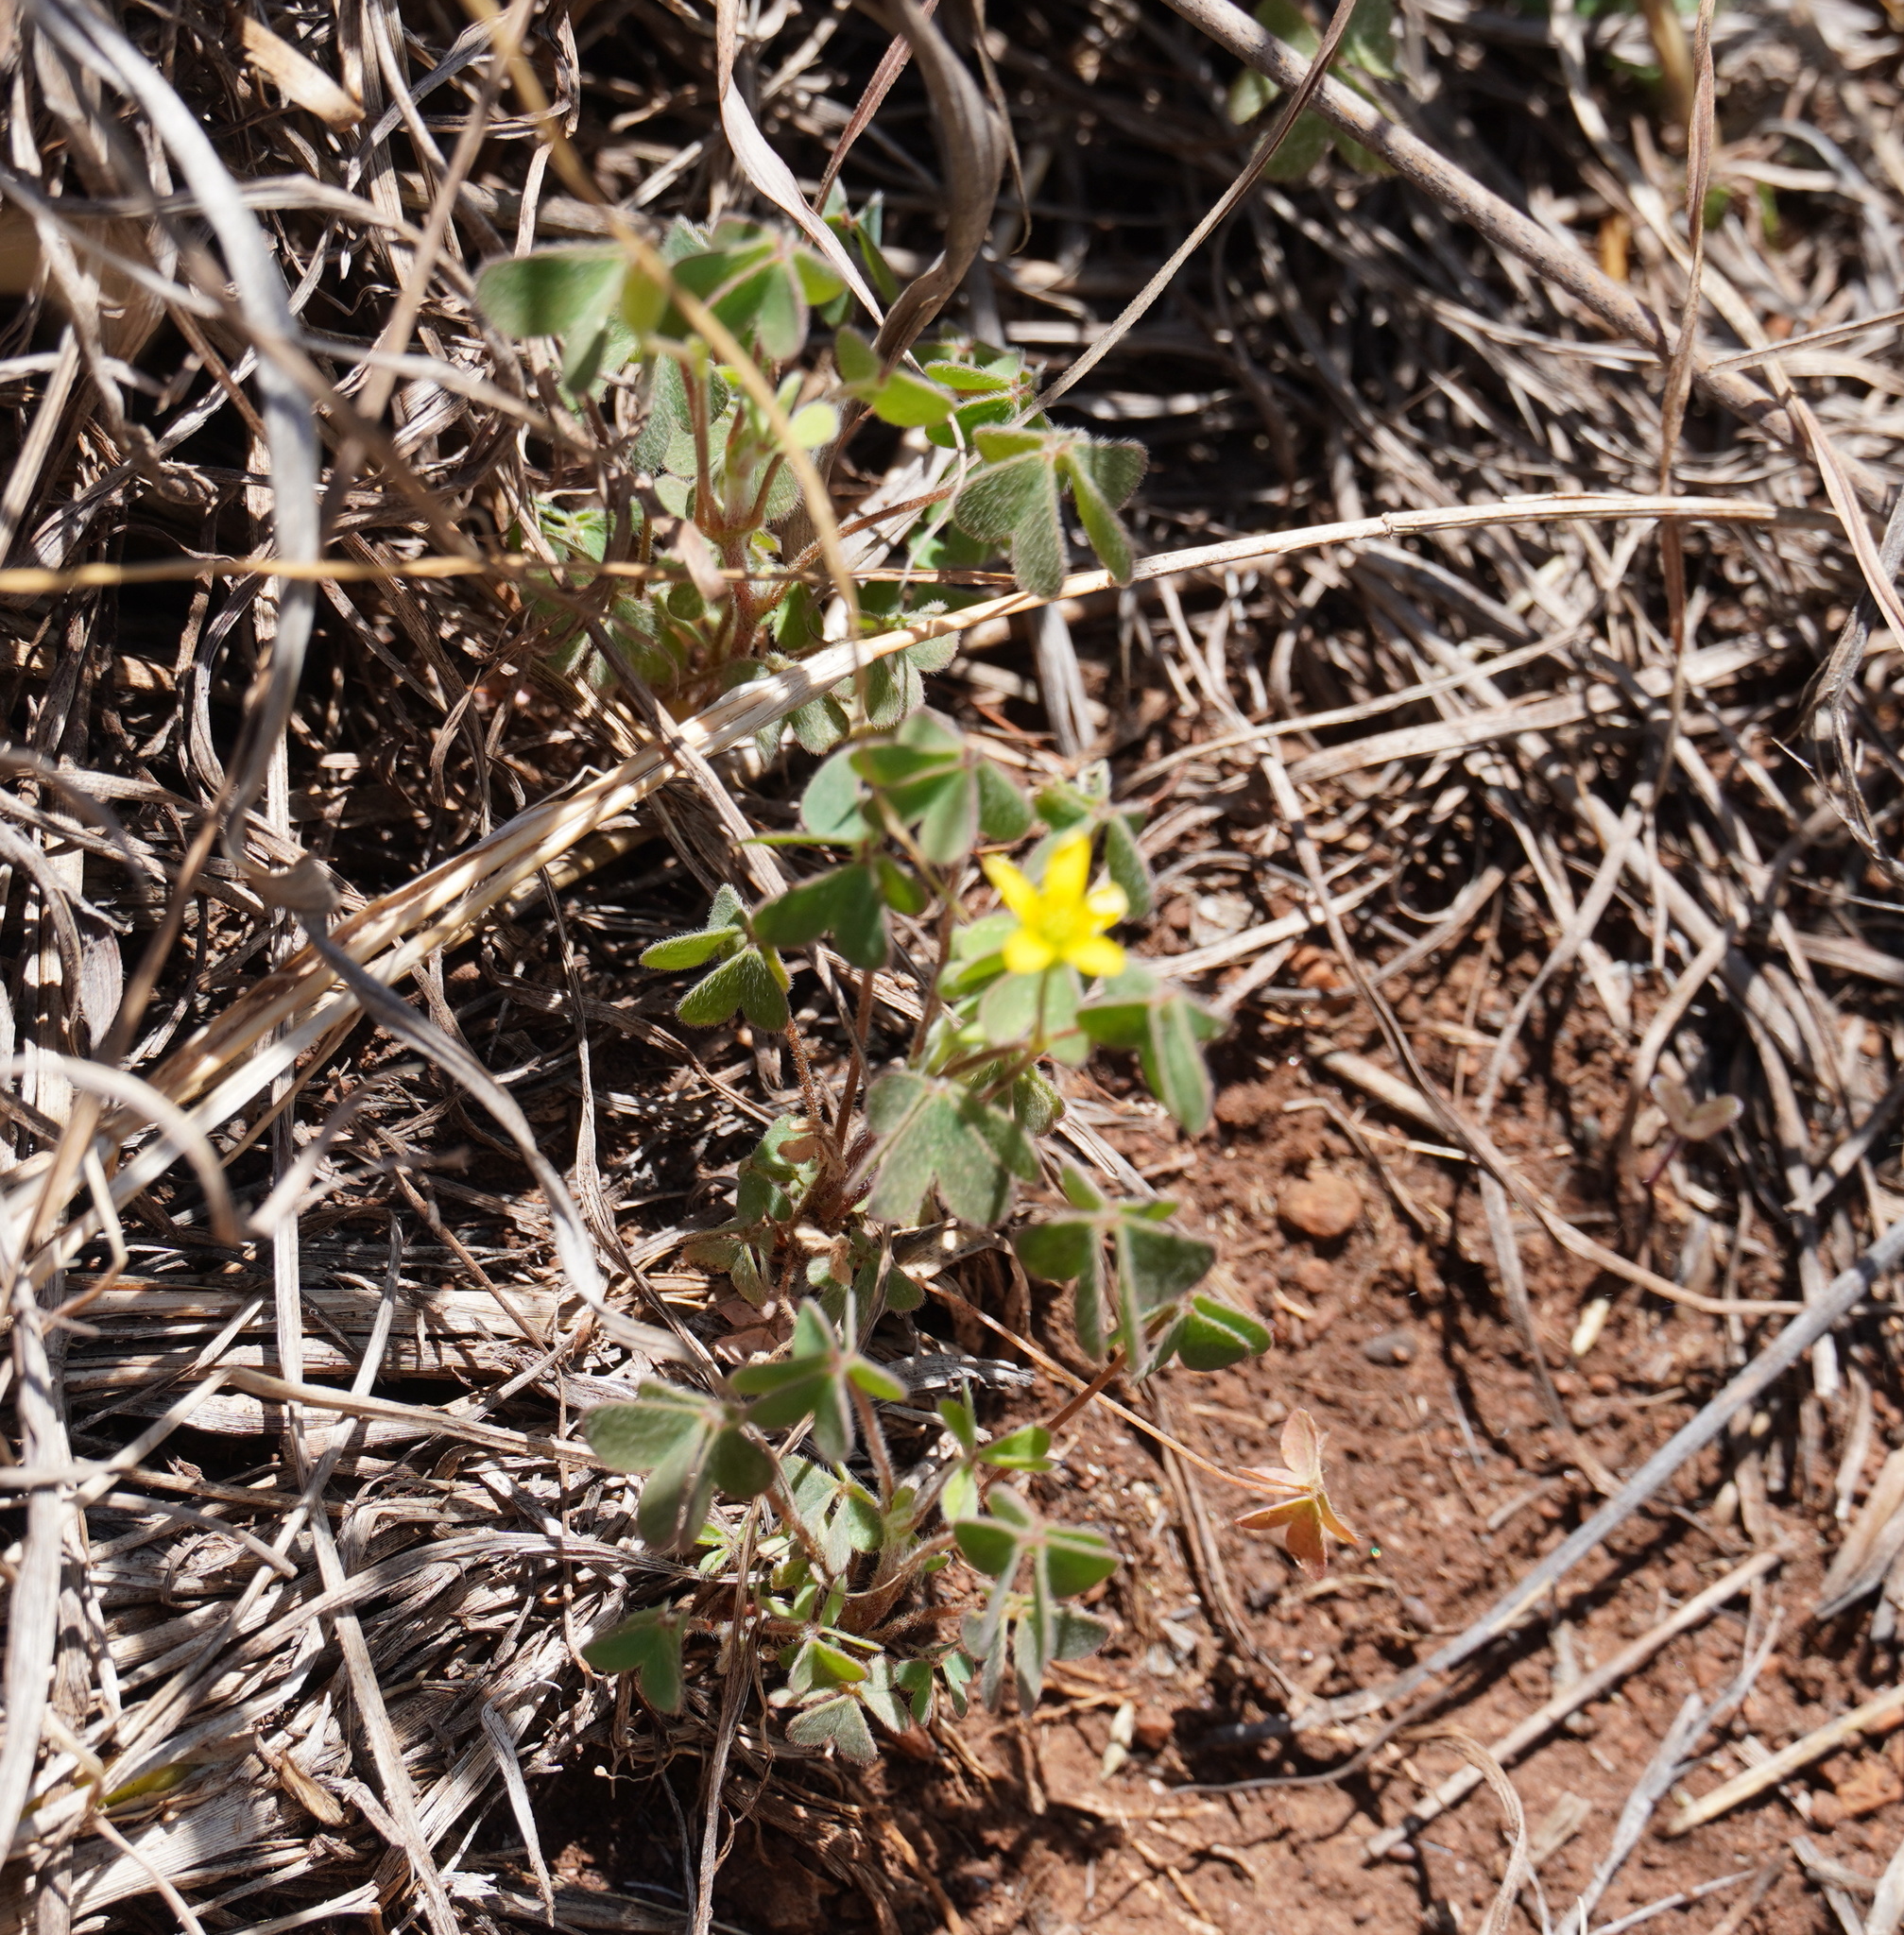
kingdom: Plantae
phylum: Tracheophyta
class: Magnoliopsida
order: Oxalidales
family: Oxalidaceae
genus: Oxalis
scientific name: Oxalis corniculata
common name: Procumbent yellow-sorrel
